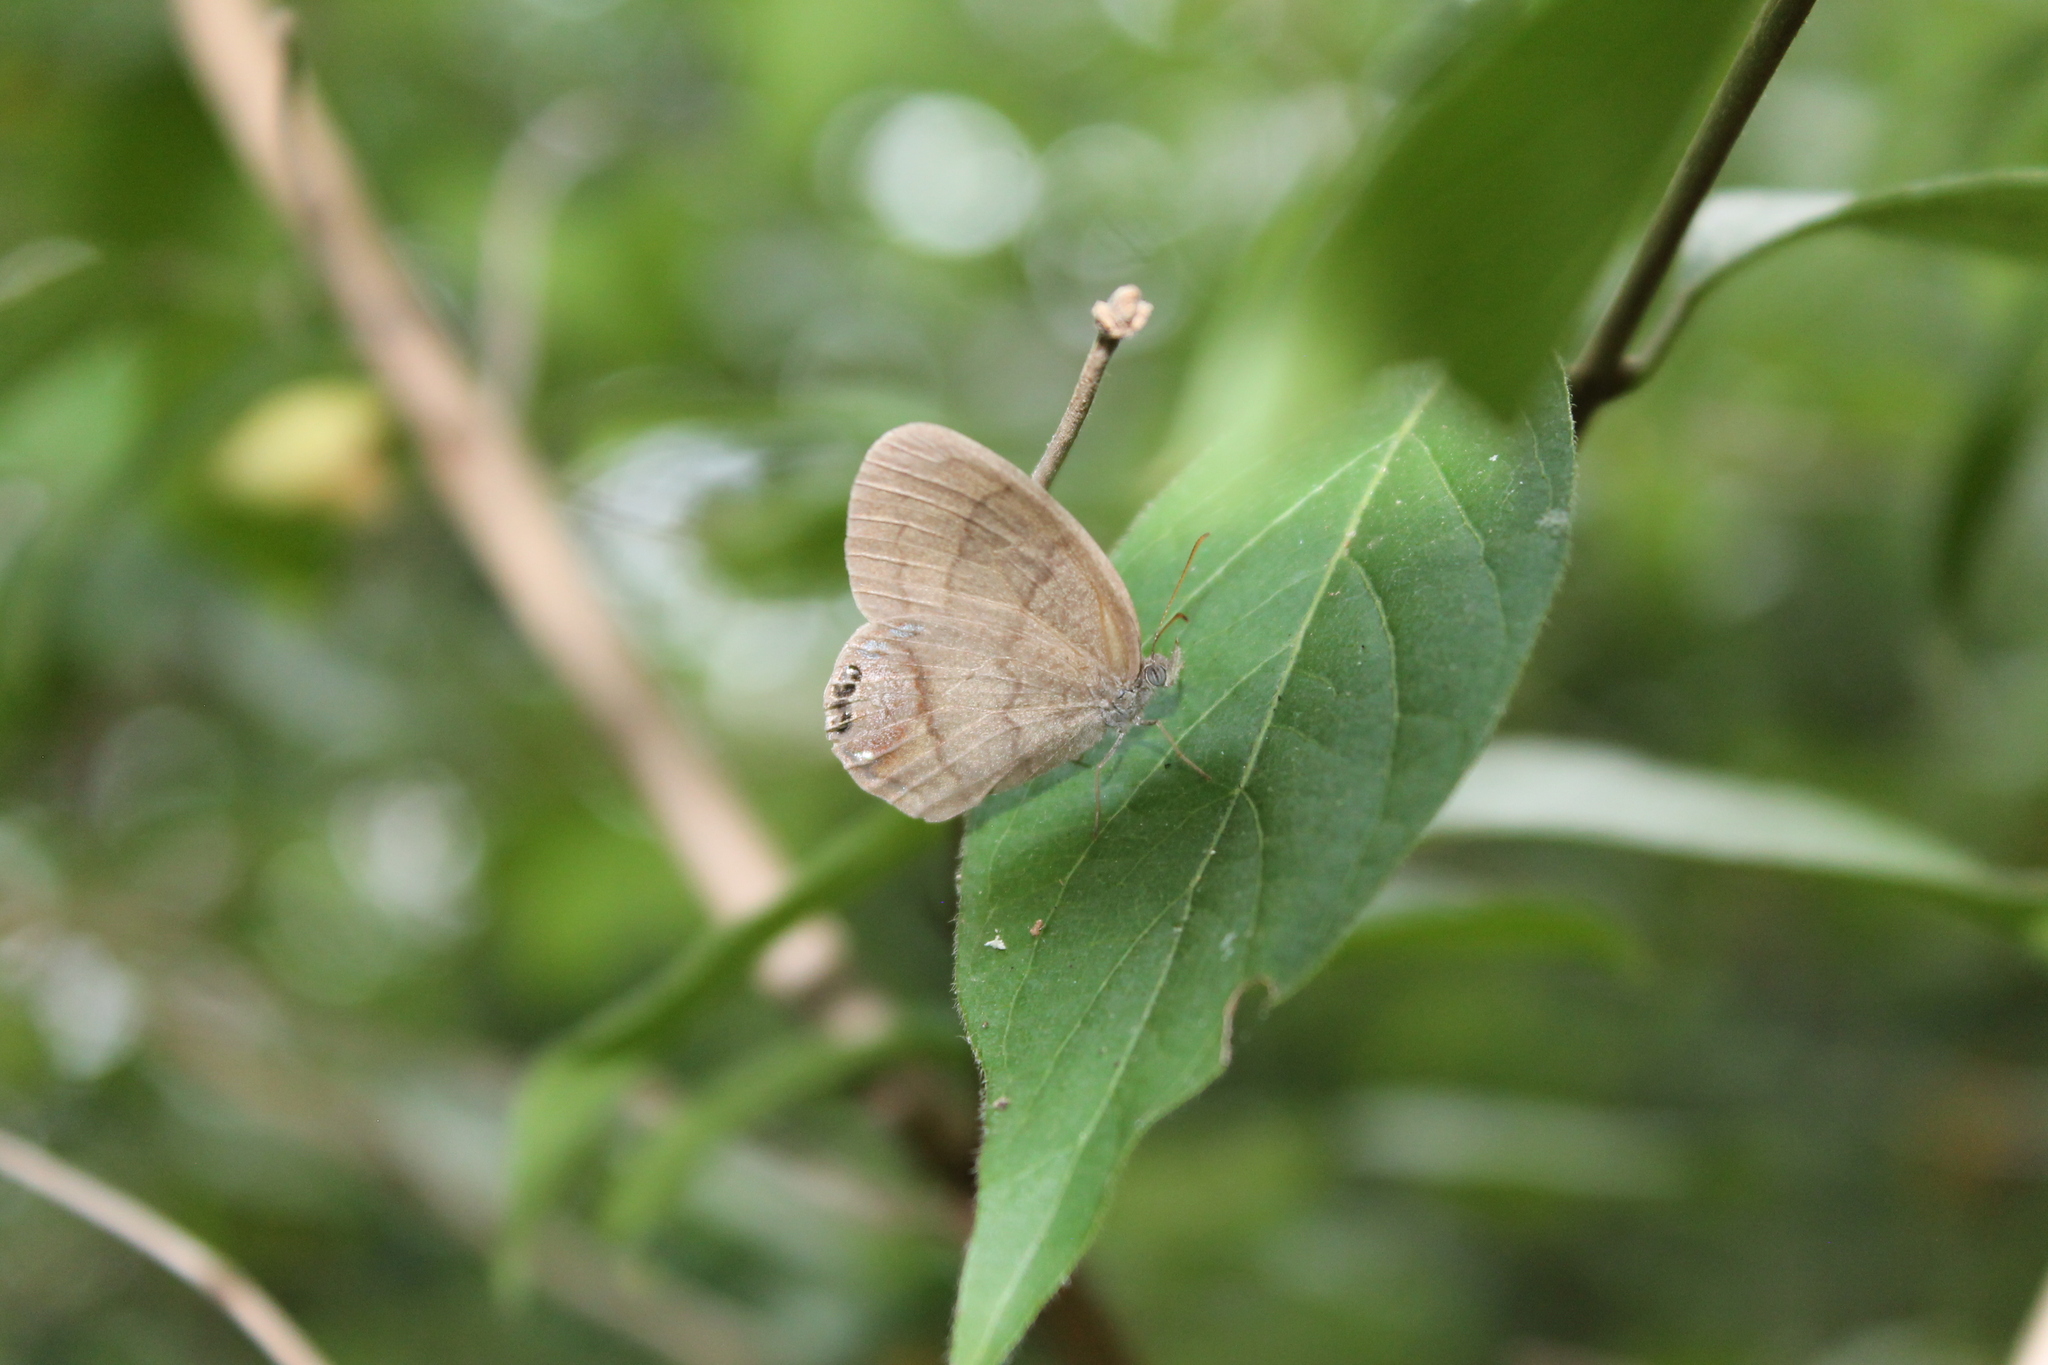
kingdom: Animalia
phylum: Arthropoda
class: Insecta
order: Lepidoptera
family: Nymphalidae
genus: Euptychia
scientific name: Euptychia cornelius
